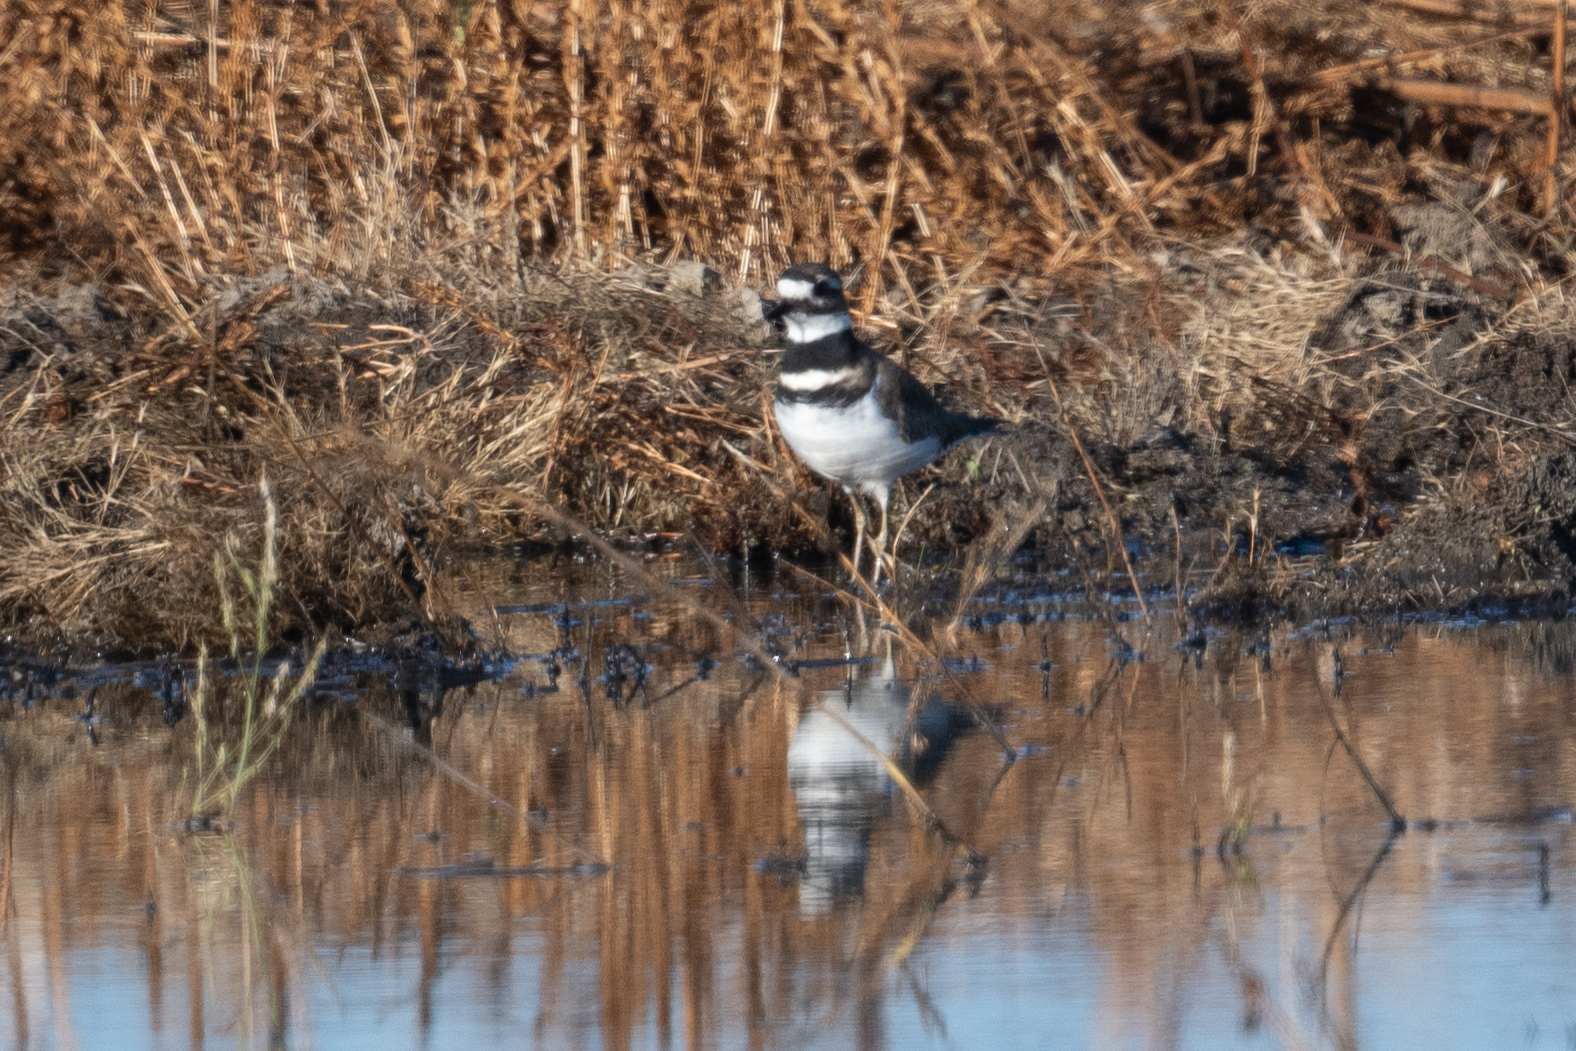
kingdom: Animalia
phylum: Chordata
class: Aves
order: Charadriiformes
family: Charadriidae
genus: Charadrius
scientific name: Charadrius vociferus
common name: Killdeer
